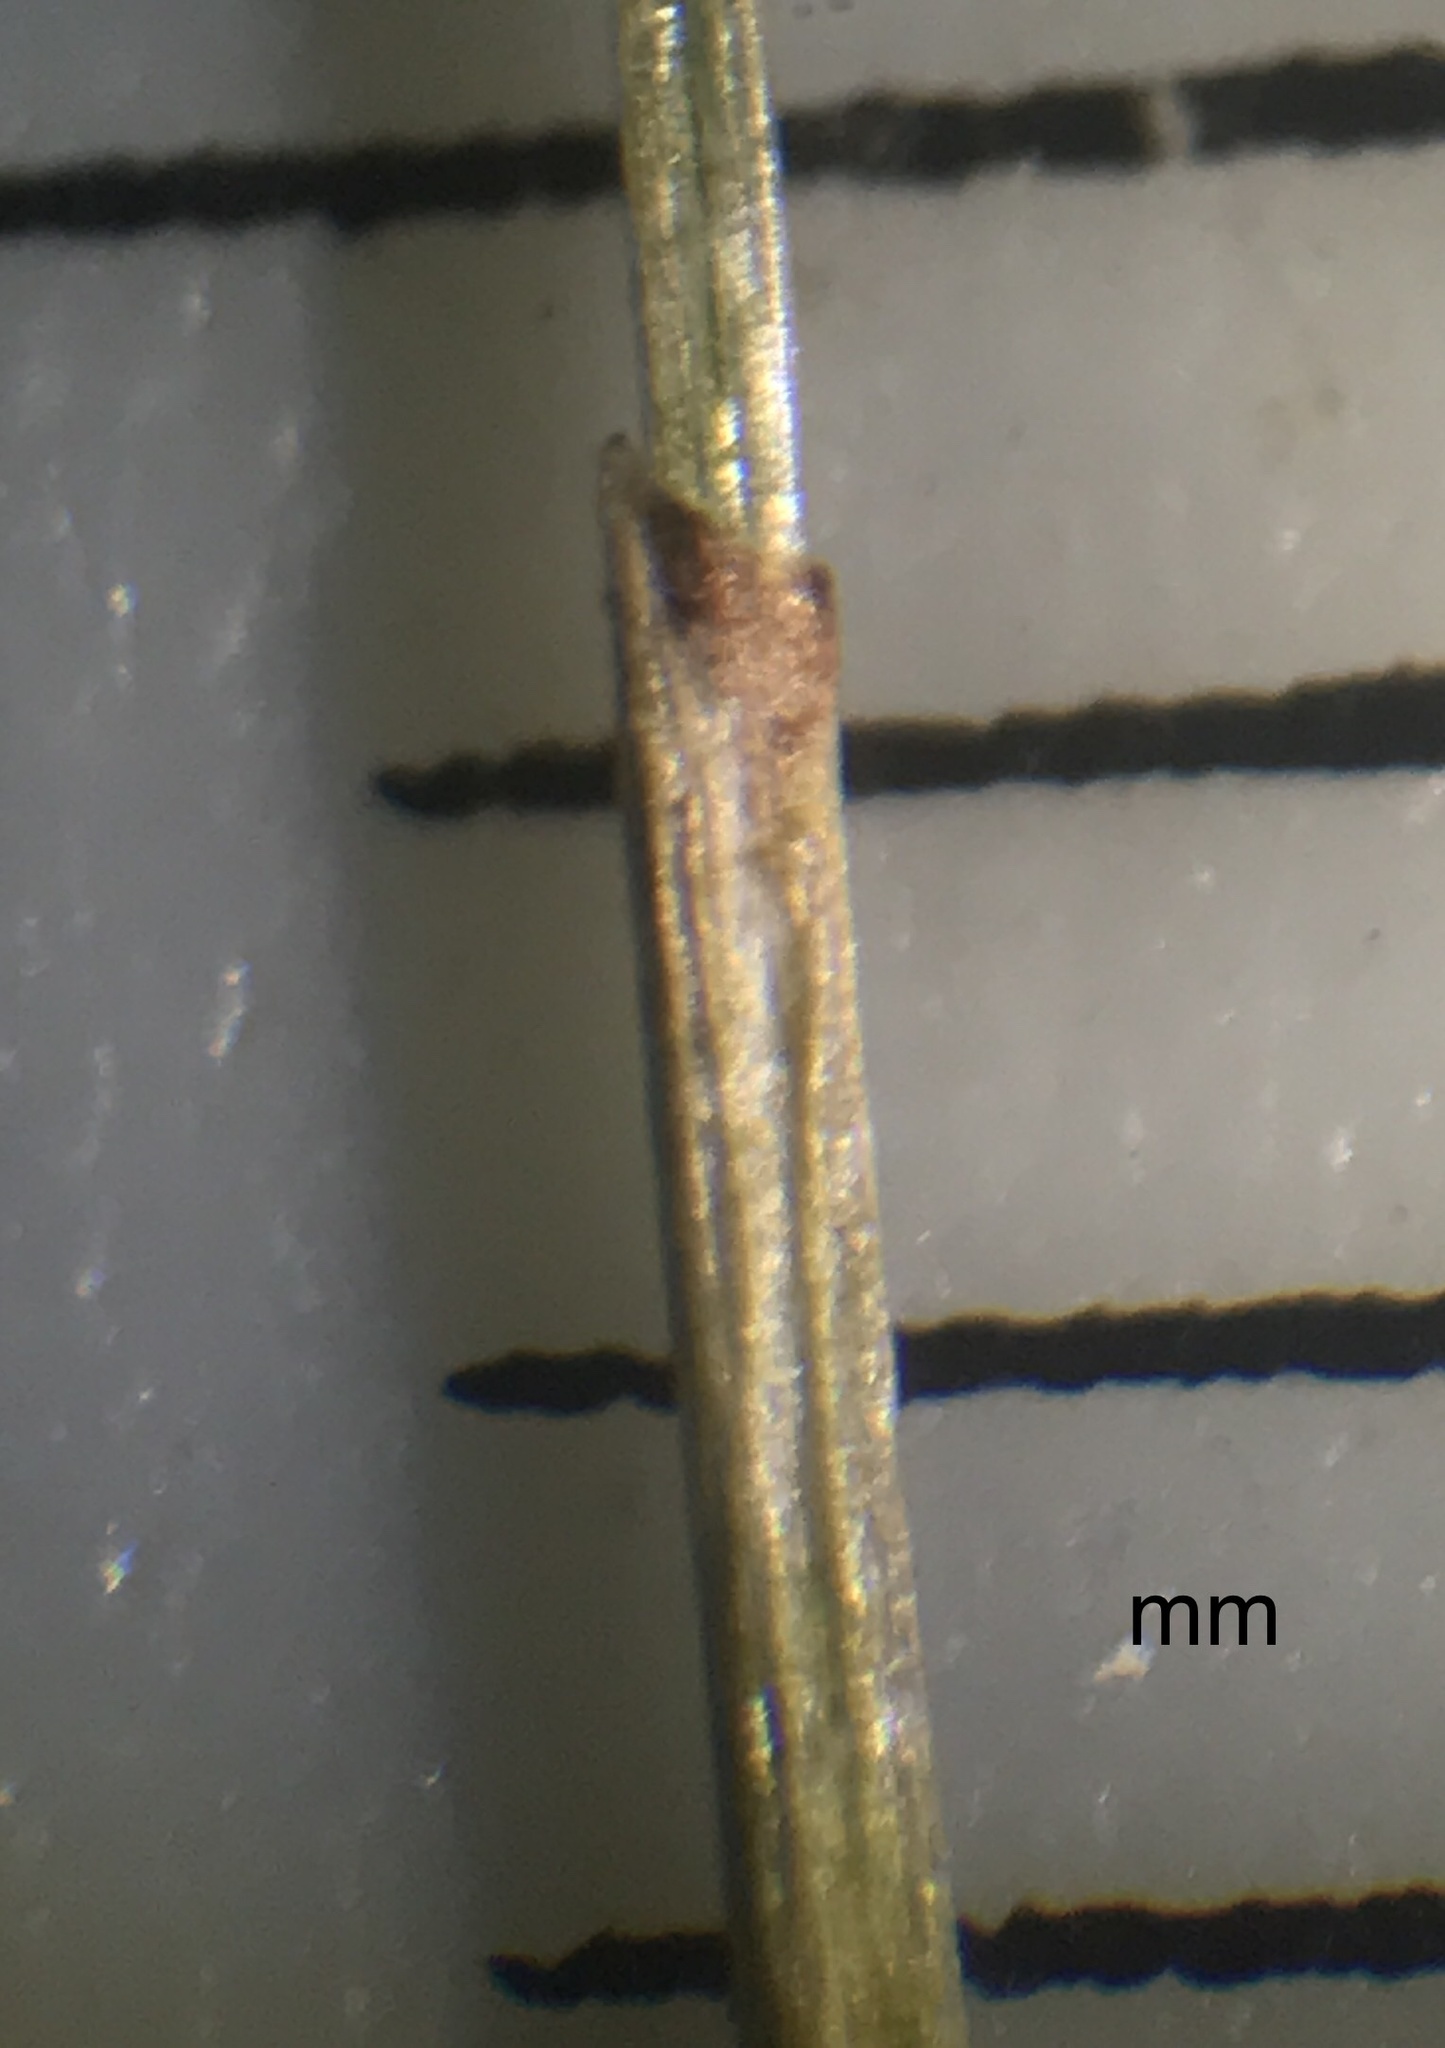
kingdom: Plantae
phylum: Tracheophyta
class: Liliopsida
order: Poales
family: Cyperaceae
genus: Eleocharis
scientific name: Eleocharis quinqueflora
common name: Few-flowered spike-rush
